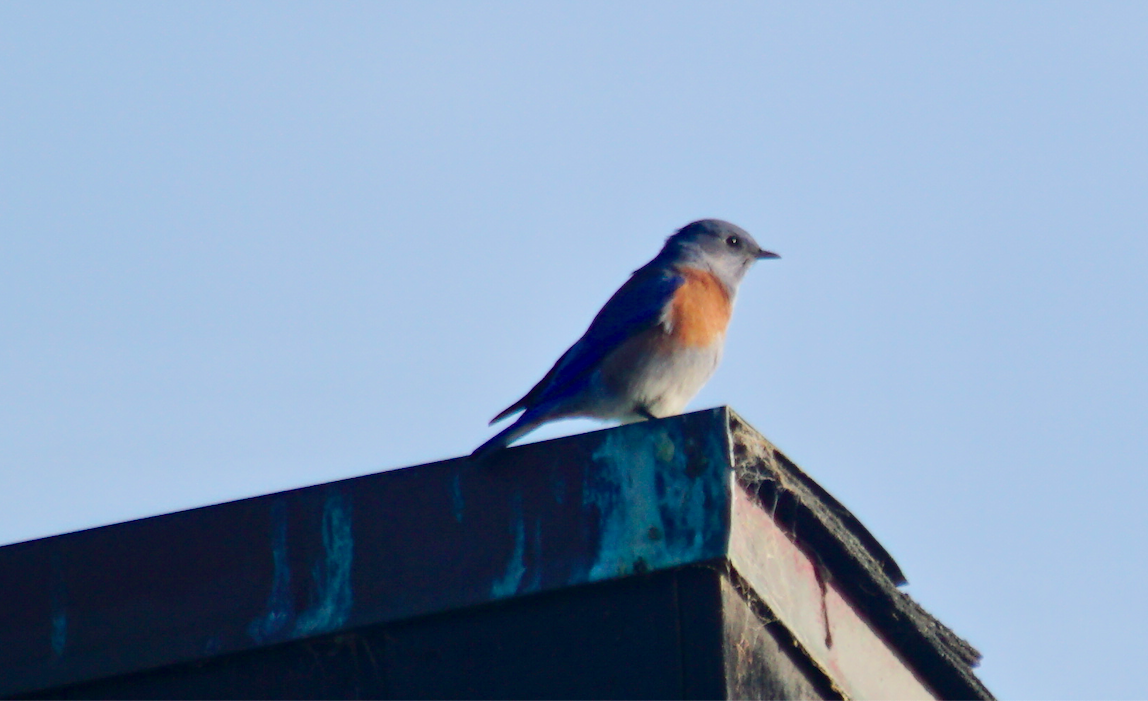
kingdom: Animalia
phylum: Chordata
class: Aves
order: Passeriformes
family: Turdidae
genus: Sialia
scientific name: Sialia mexicana
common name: Western bluebird
